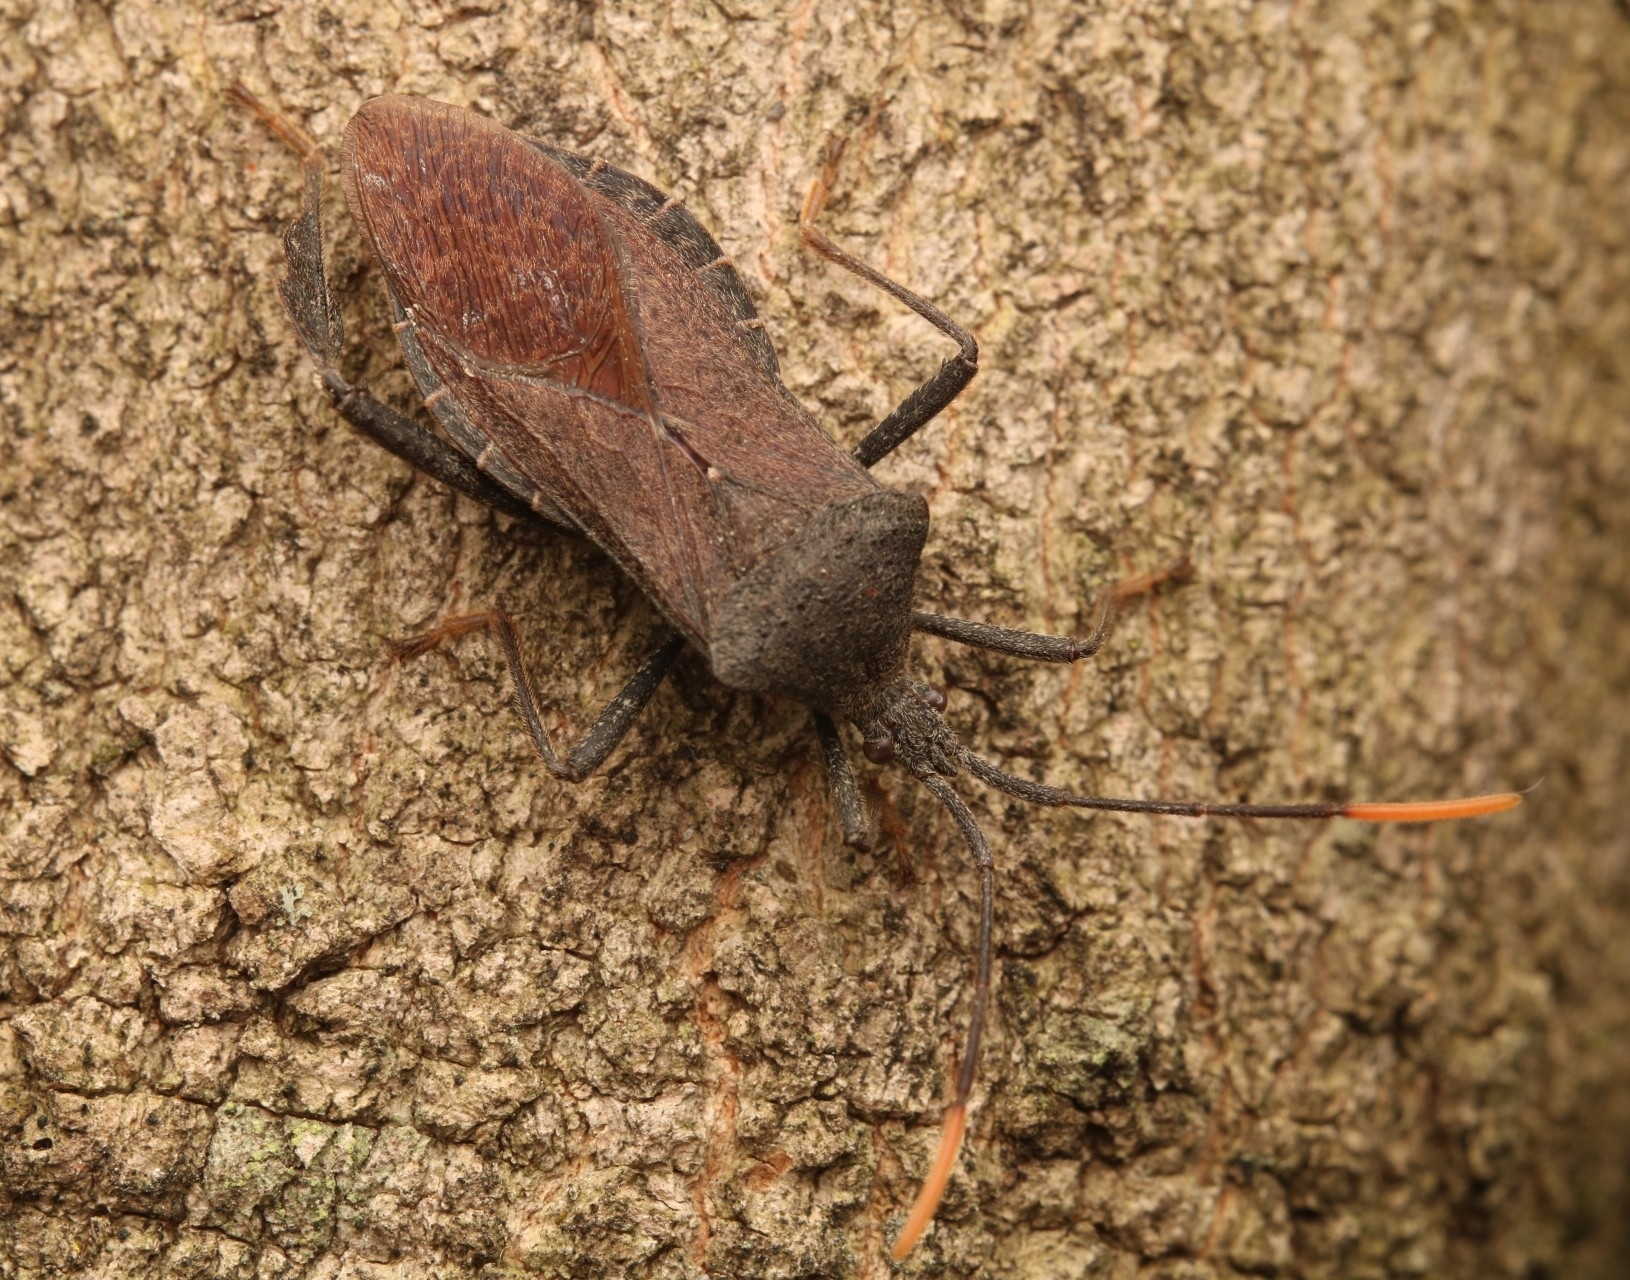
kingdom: Animalia
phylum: Arthropoda
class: Insecta
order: Hemiptera
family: Coreidae
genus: Acanthocephala
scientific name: Acanthocephala terminalis
